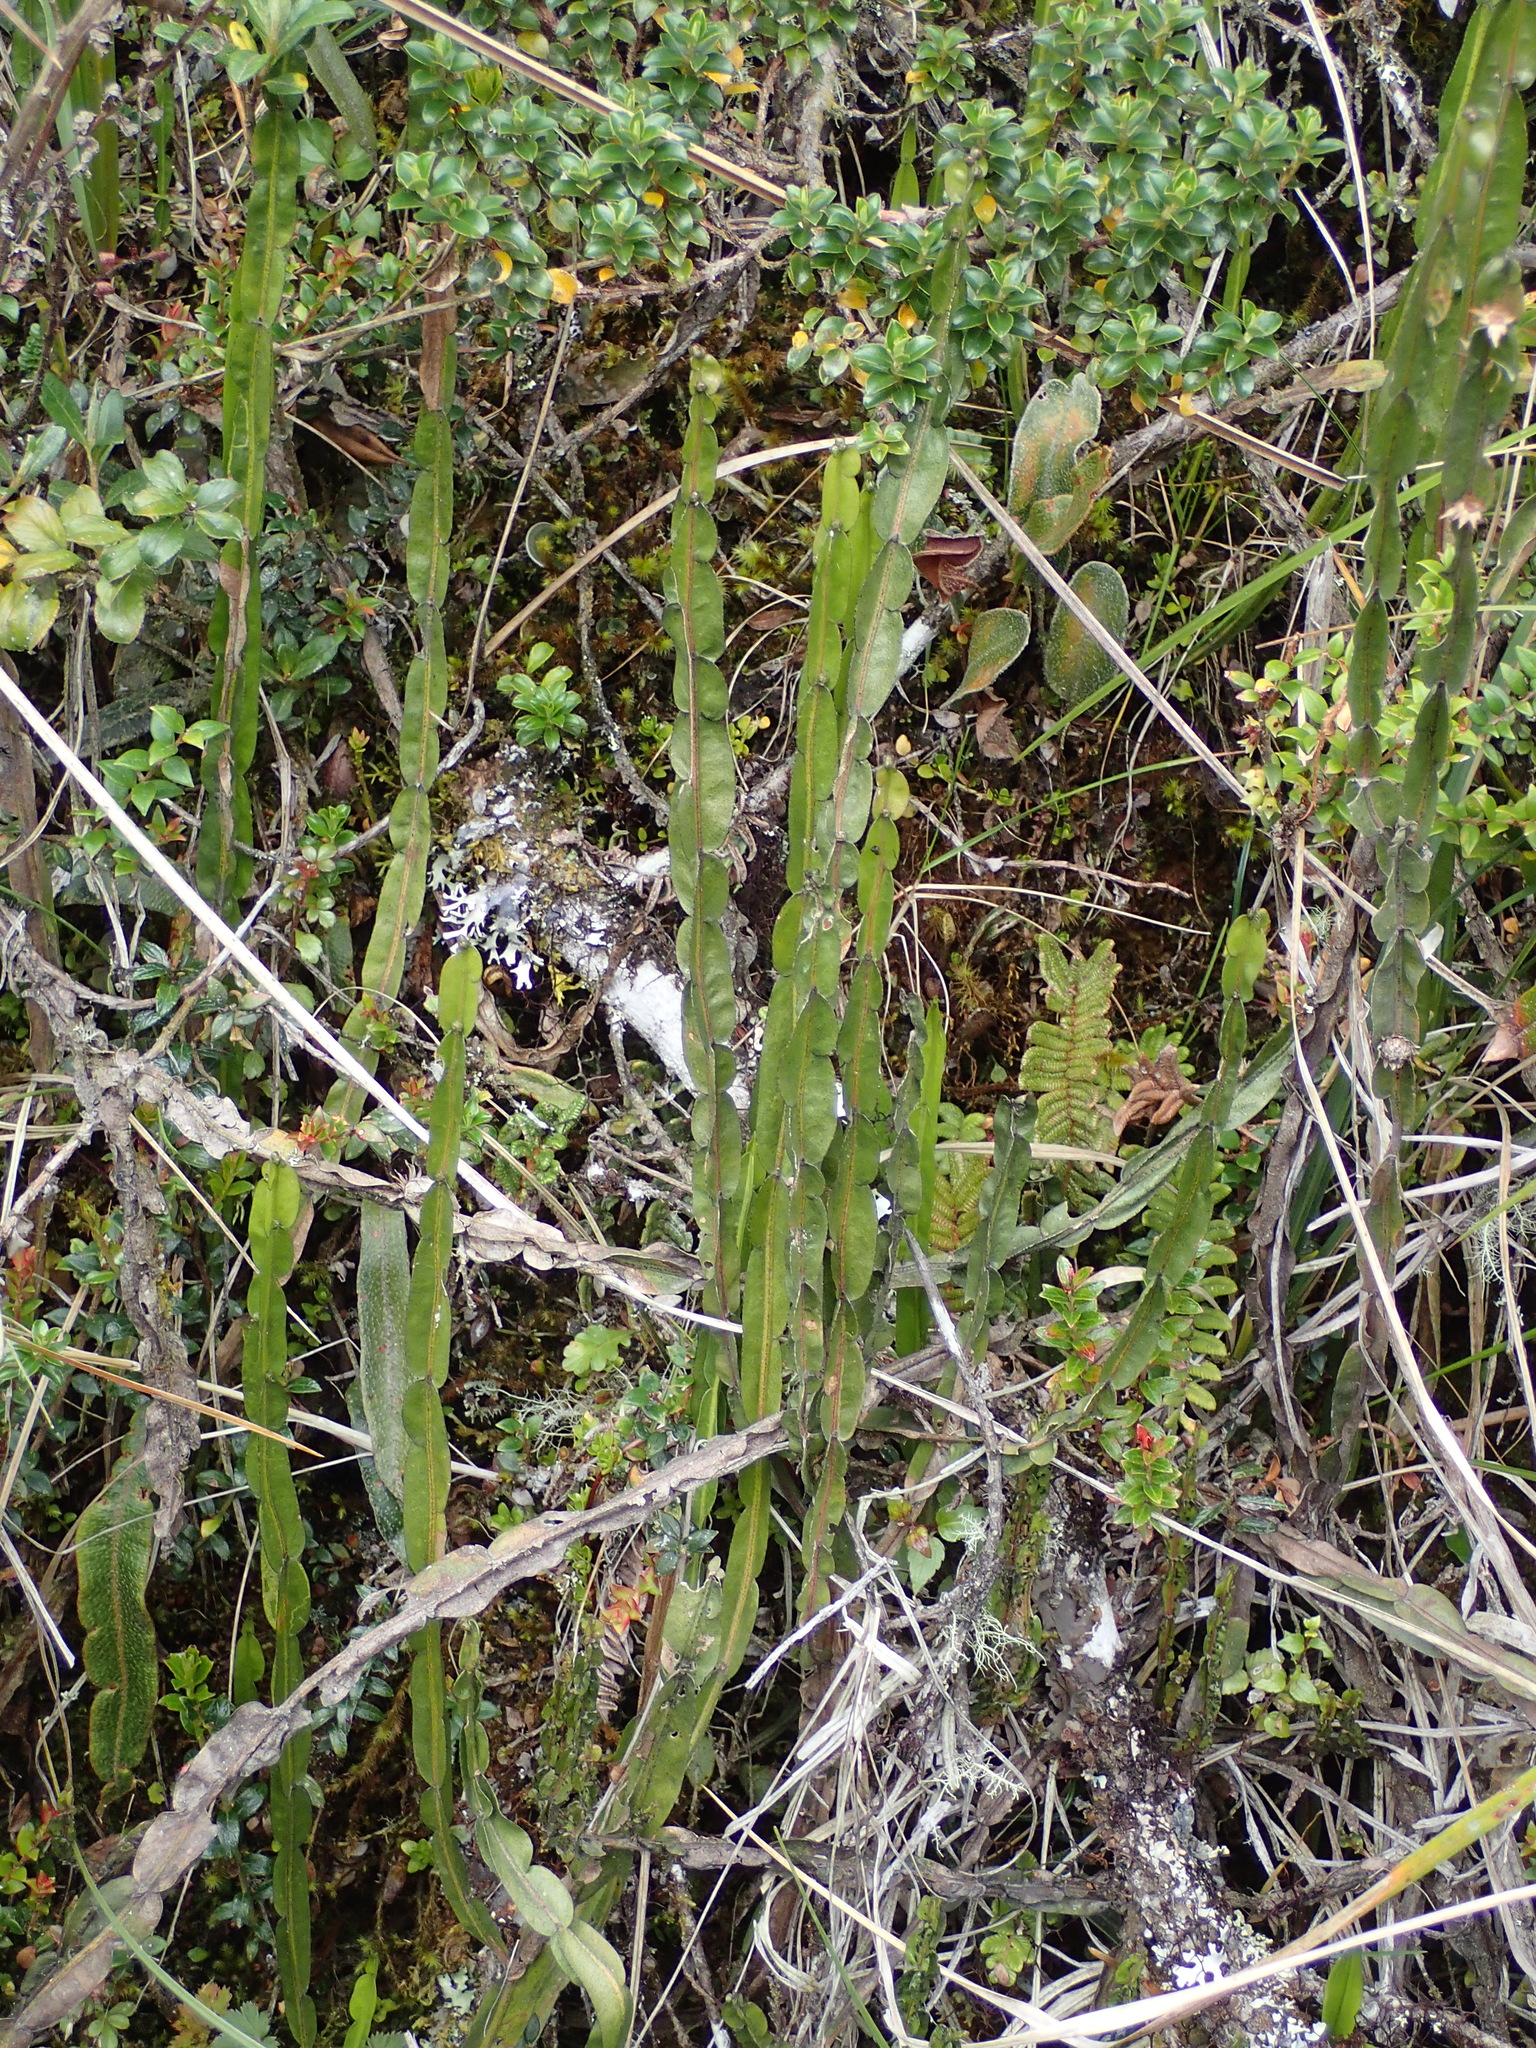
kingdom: Plantae
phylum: Tracheophyta
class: Magnoliopsida
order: Asterales
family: Asteraceae
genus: Baccharis
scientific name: Baccharis genistelloides
